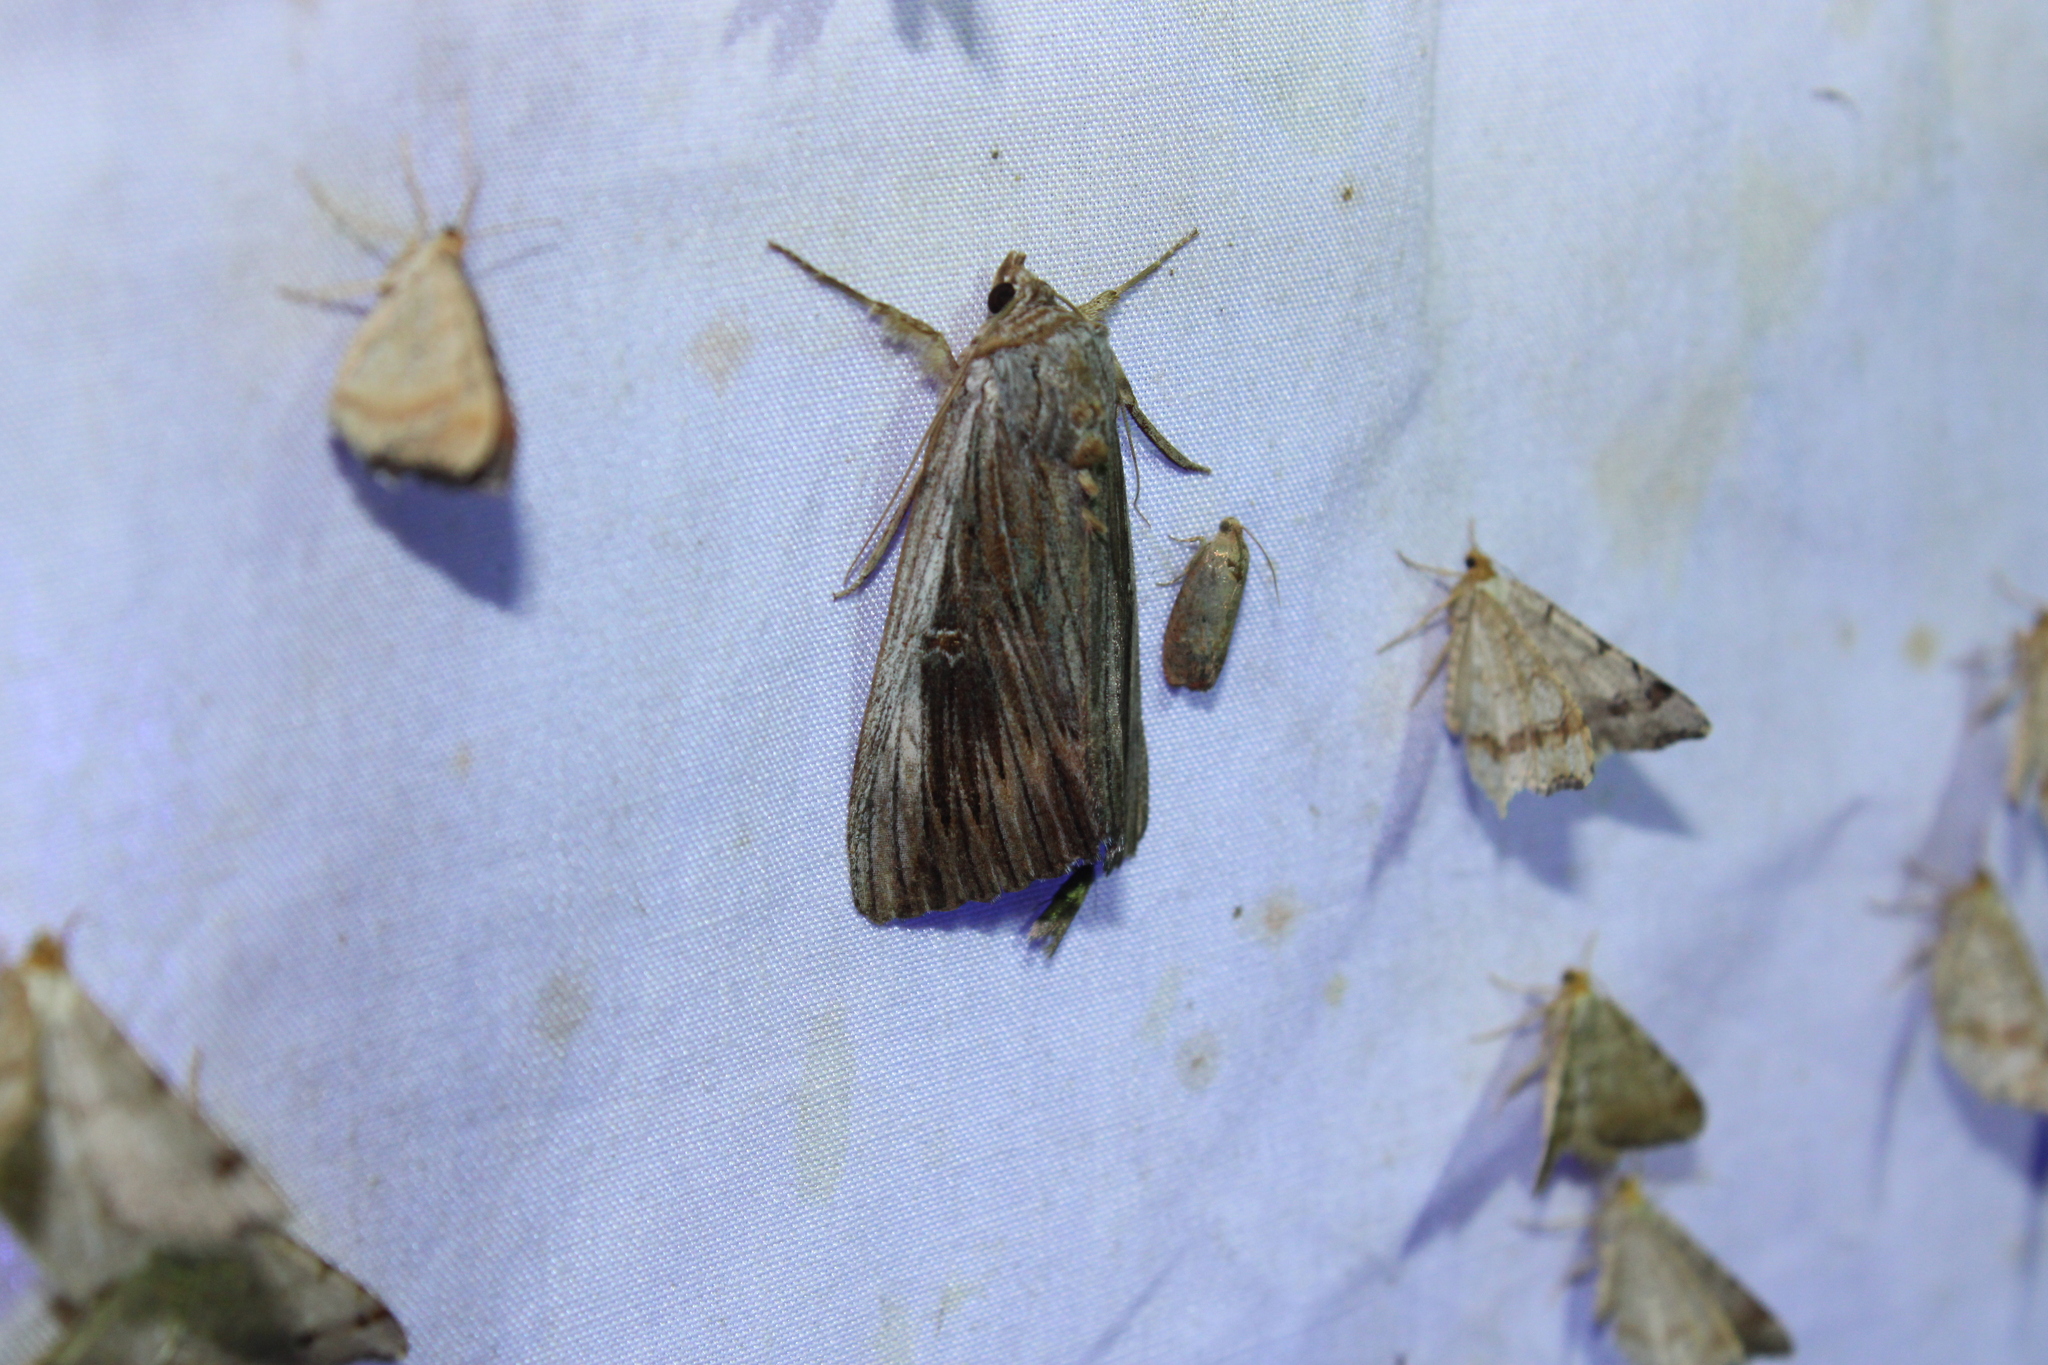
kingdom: Animalia
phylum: Arthropoda
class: Insecta
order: Lepidoptera
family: Erebidae
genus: Catocala
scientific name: Catocala herodias
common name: Pine barrens underwing
